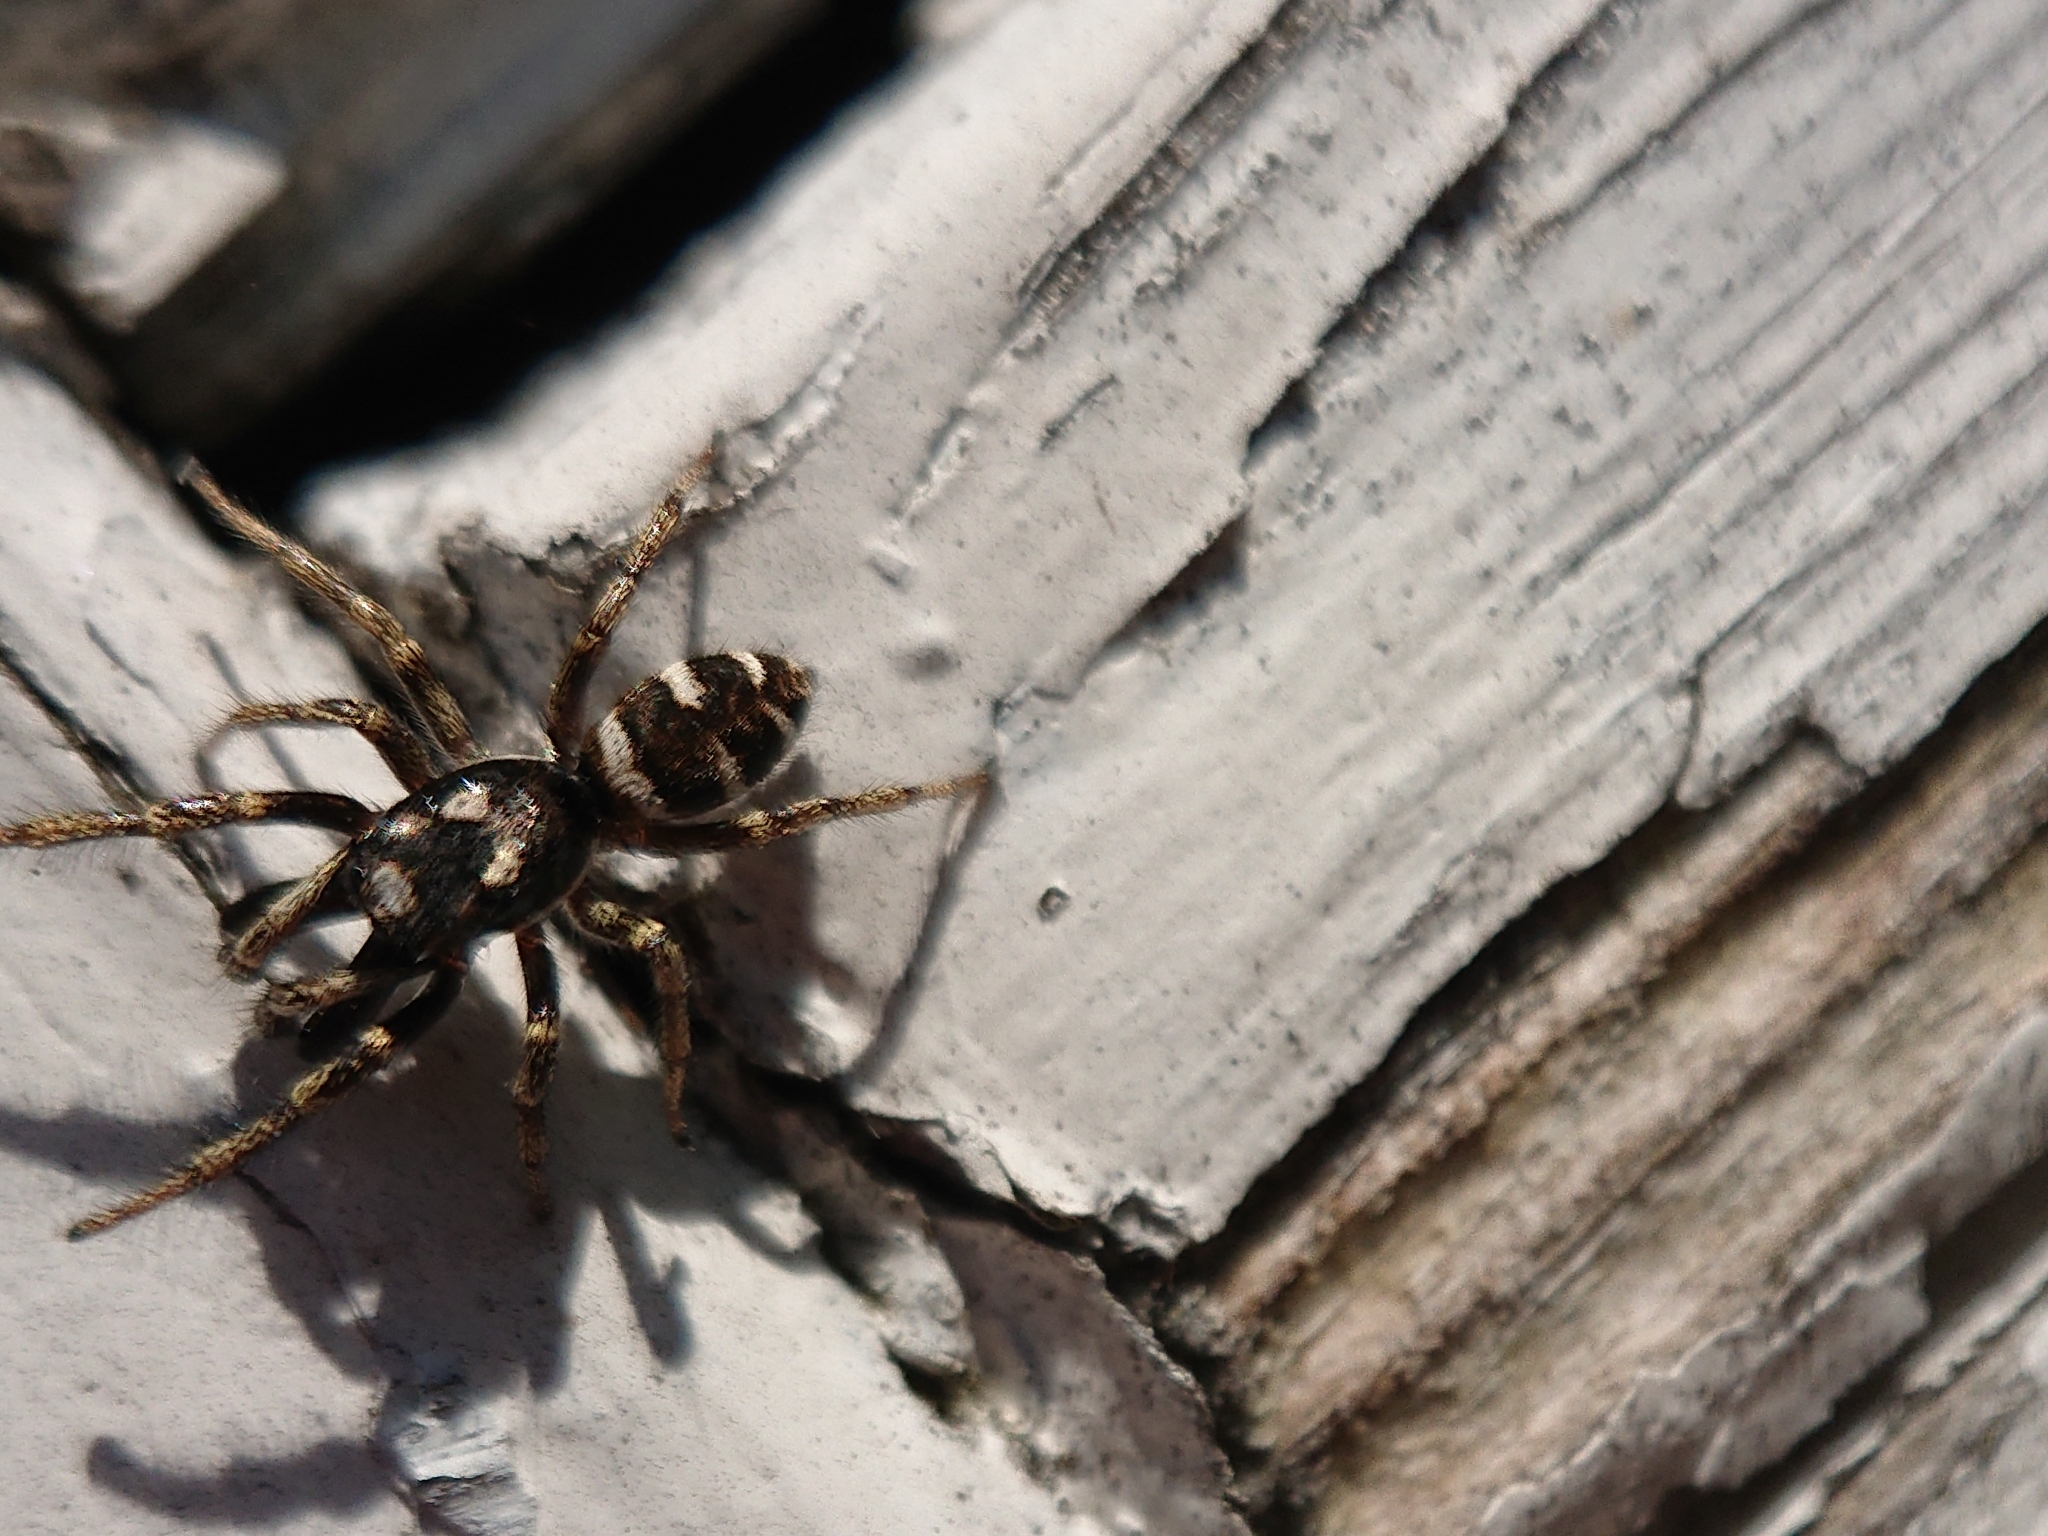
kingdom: Animalia
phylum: Arthropoda
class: Arachnida
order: Araneae
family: Salticidae
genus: Salticus
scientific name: Salticus scenicus
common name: Zebra jumper
